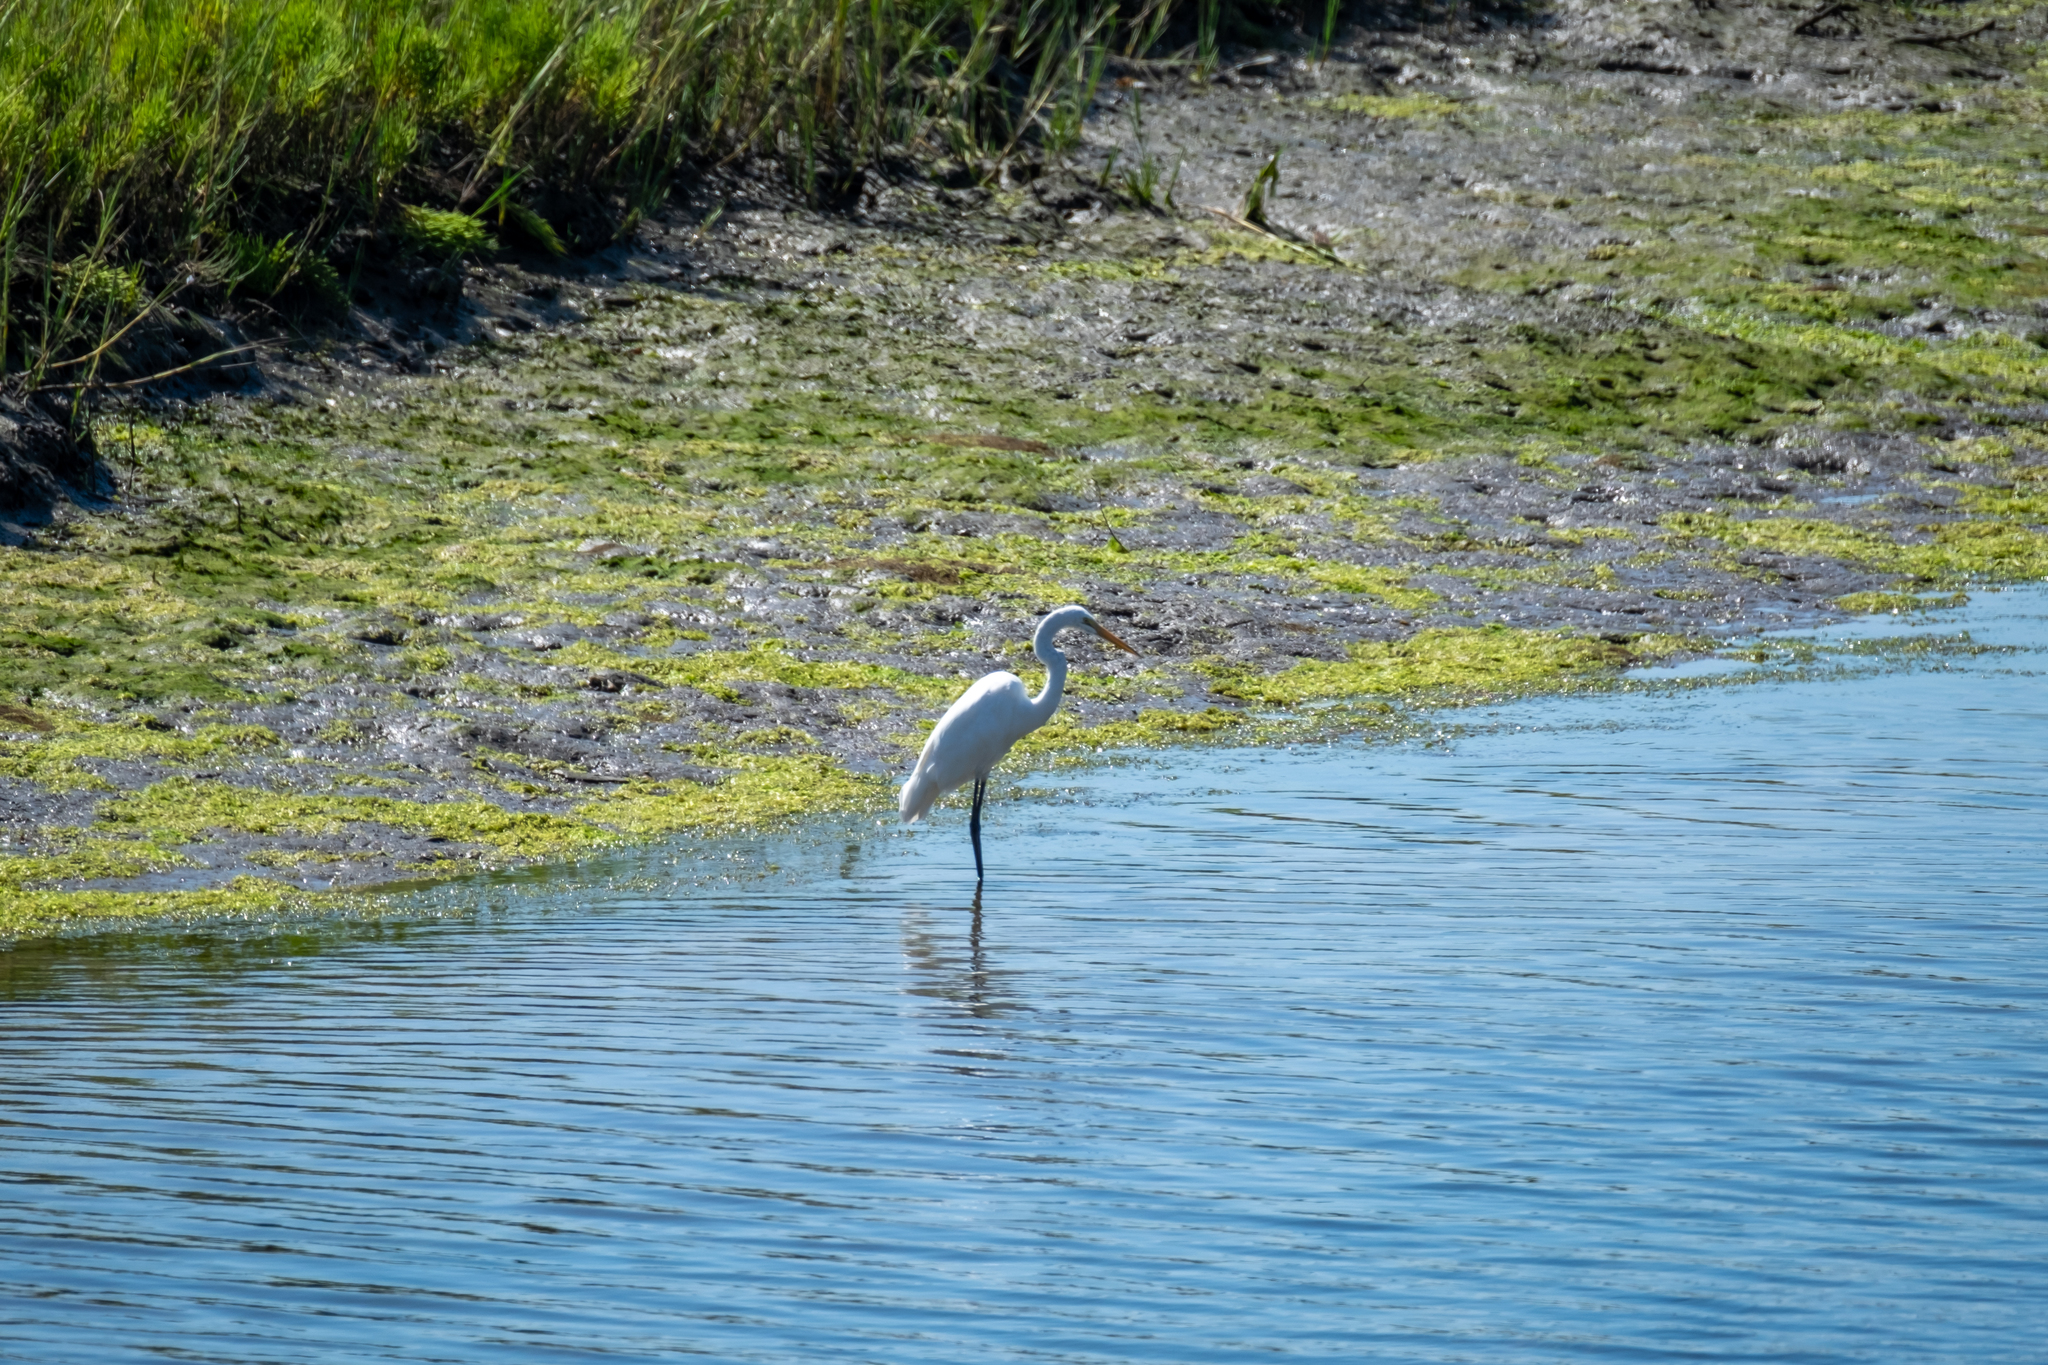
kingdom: Animalia
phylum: Chordata
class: Aves
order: Pelecaniformes
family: Ardeidae
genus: Ardea
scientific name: Ardea alba
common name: Great egret
